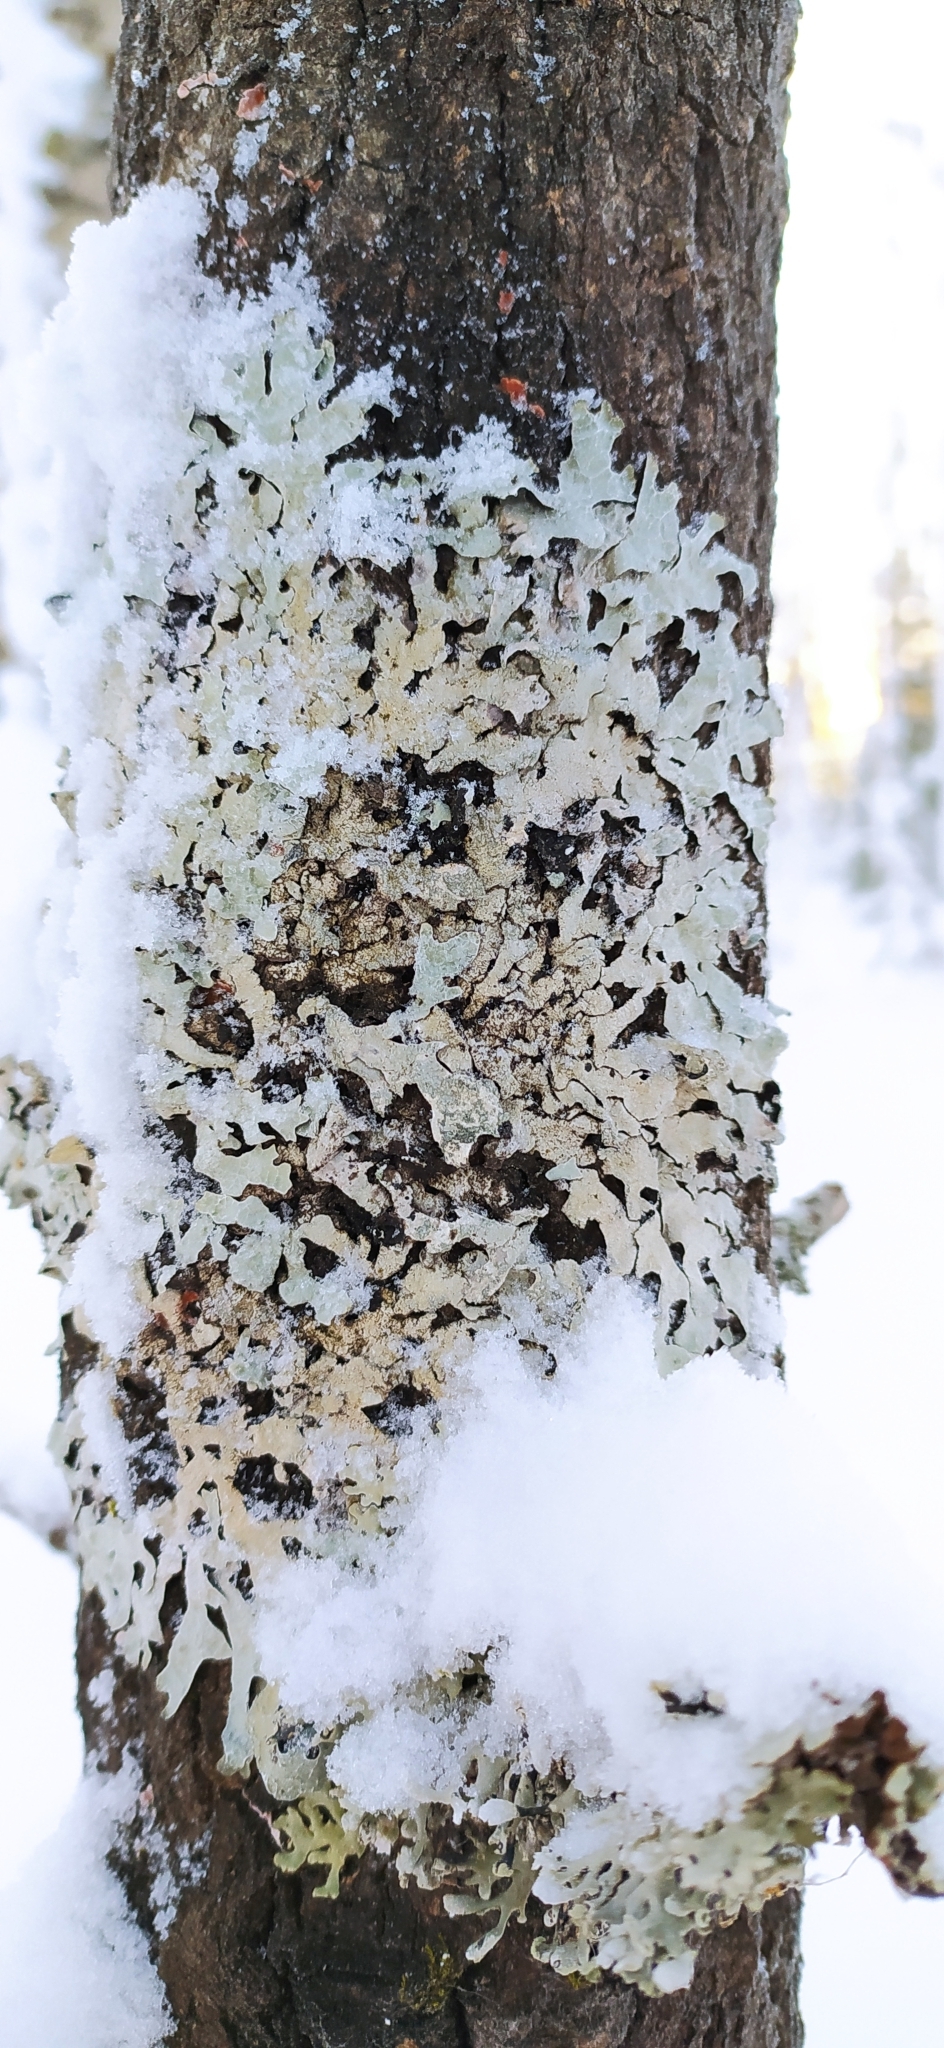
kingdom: Fungi
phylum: Ascomycota
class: Lecanoromycetes
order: Lecanorales
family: Parmeliaceae
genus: Parmelia
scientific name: Parmelia sulcata
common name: Netted shield lichen
